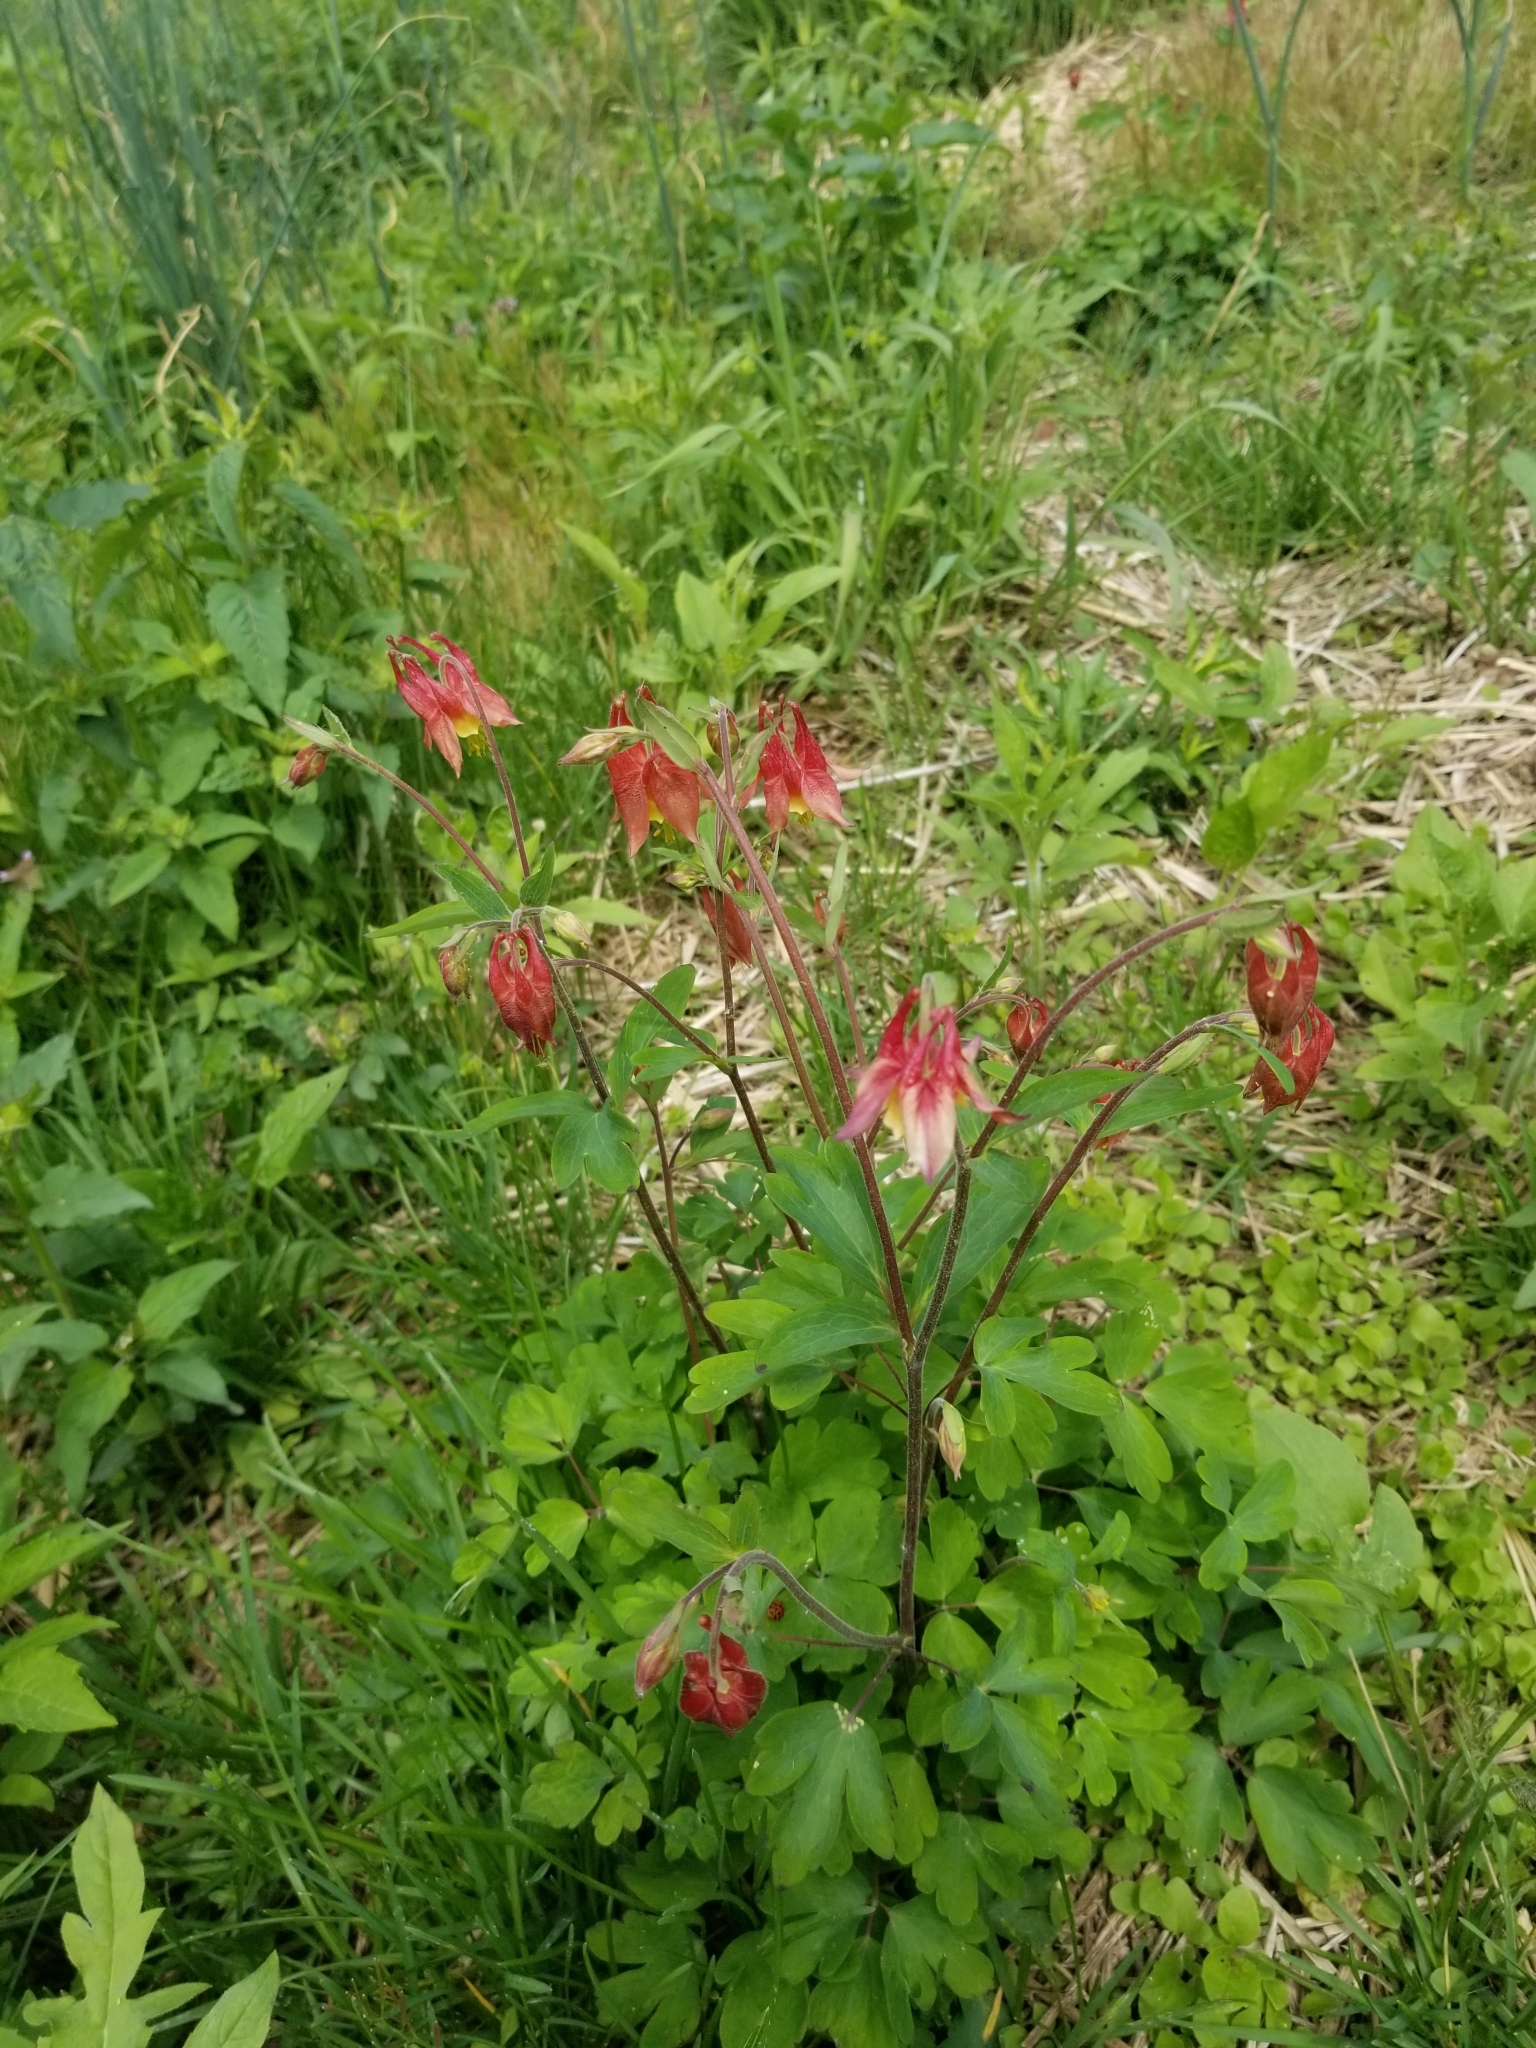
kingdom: Plantae
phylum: Tracheophyta
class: Magnoliopsida
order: Ranunculales
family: Ranunculaceae
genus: Aquilegia
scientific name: Aquilegia canadensis
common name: American columbine
